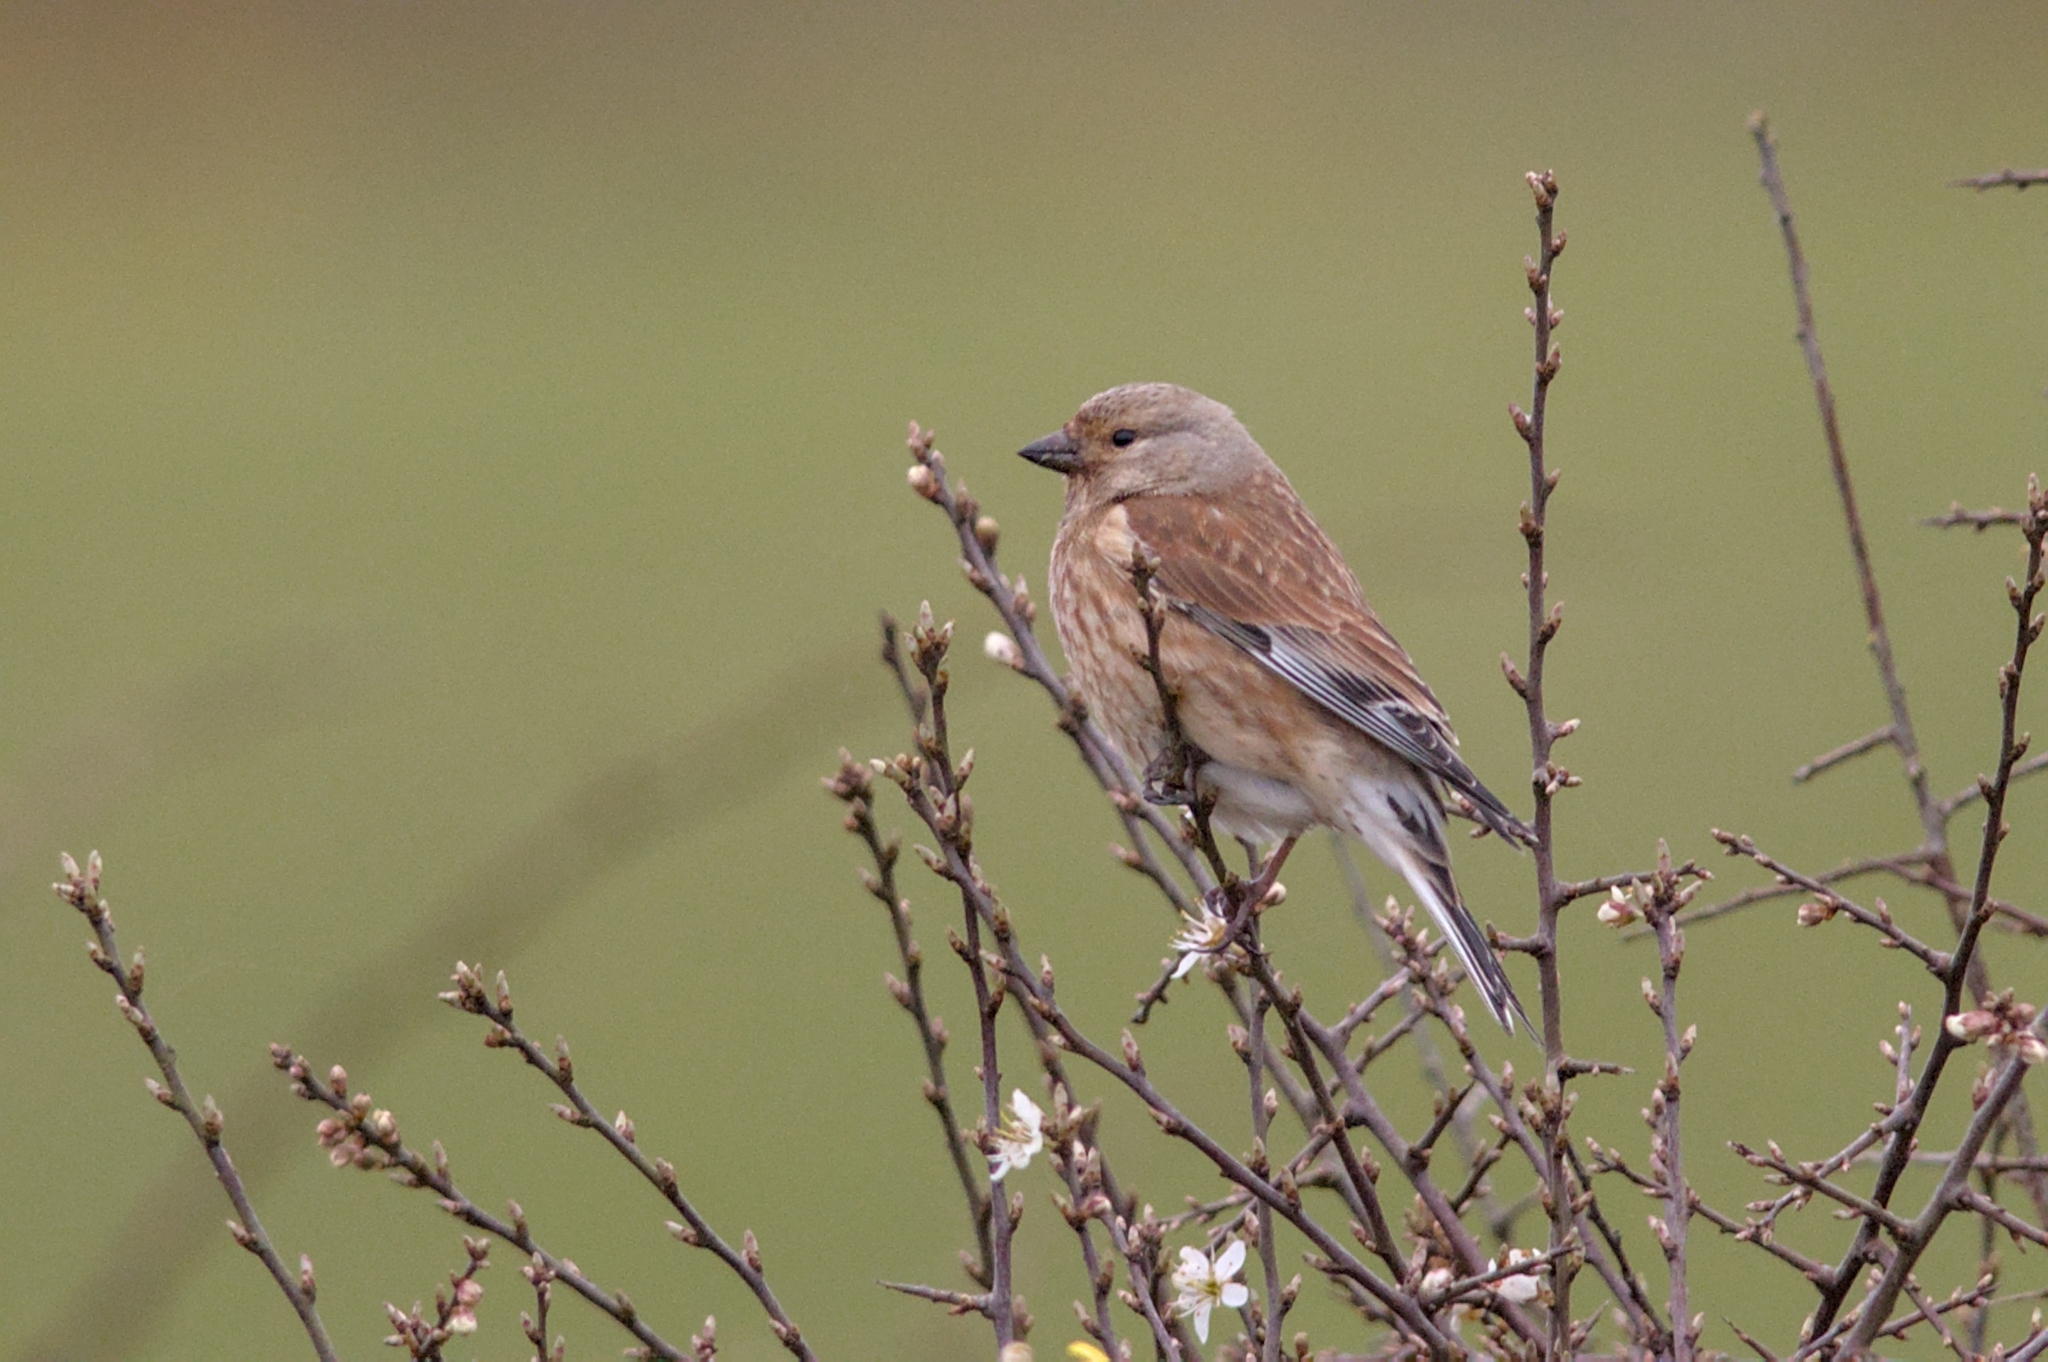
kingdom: Animalia
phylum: Chordata
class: Aves
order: Passeriformes
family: Fringillidae
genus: Linaria
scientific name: Linaria cannabina
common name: Common linnet
